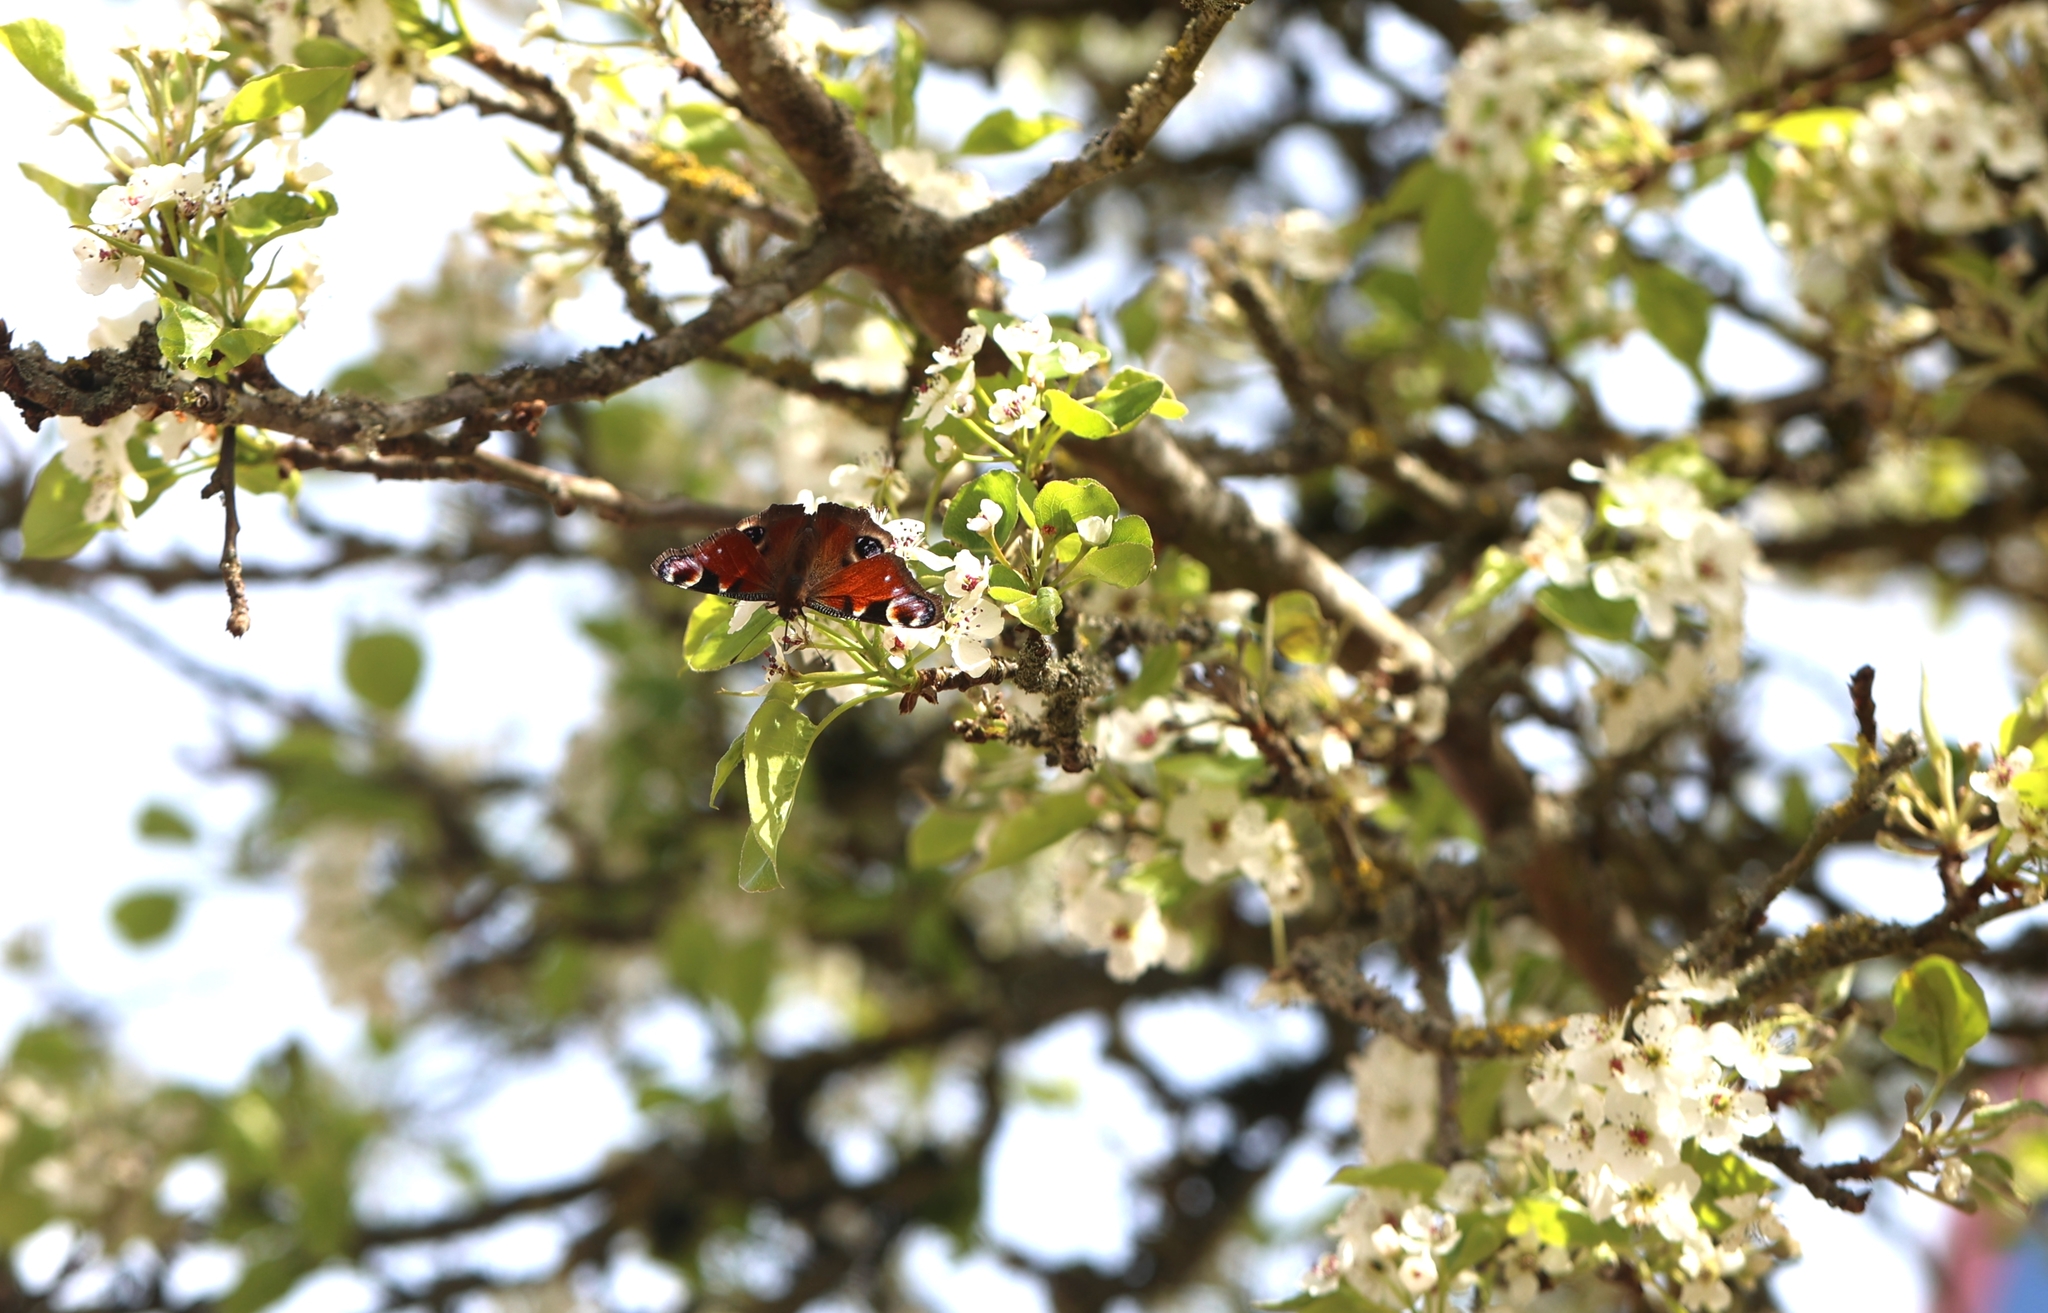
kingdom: Animalia
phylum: Arthropoda
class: Insecta
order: Lepidoptera
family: Nymphalidae
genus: Aglais
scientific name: Aglais io
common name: Peacock
